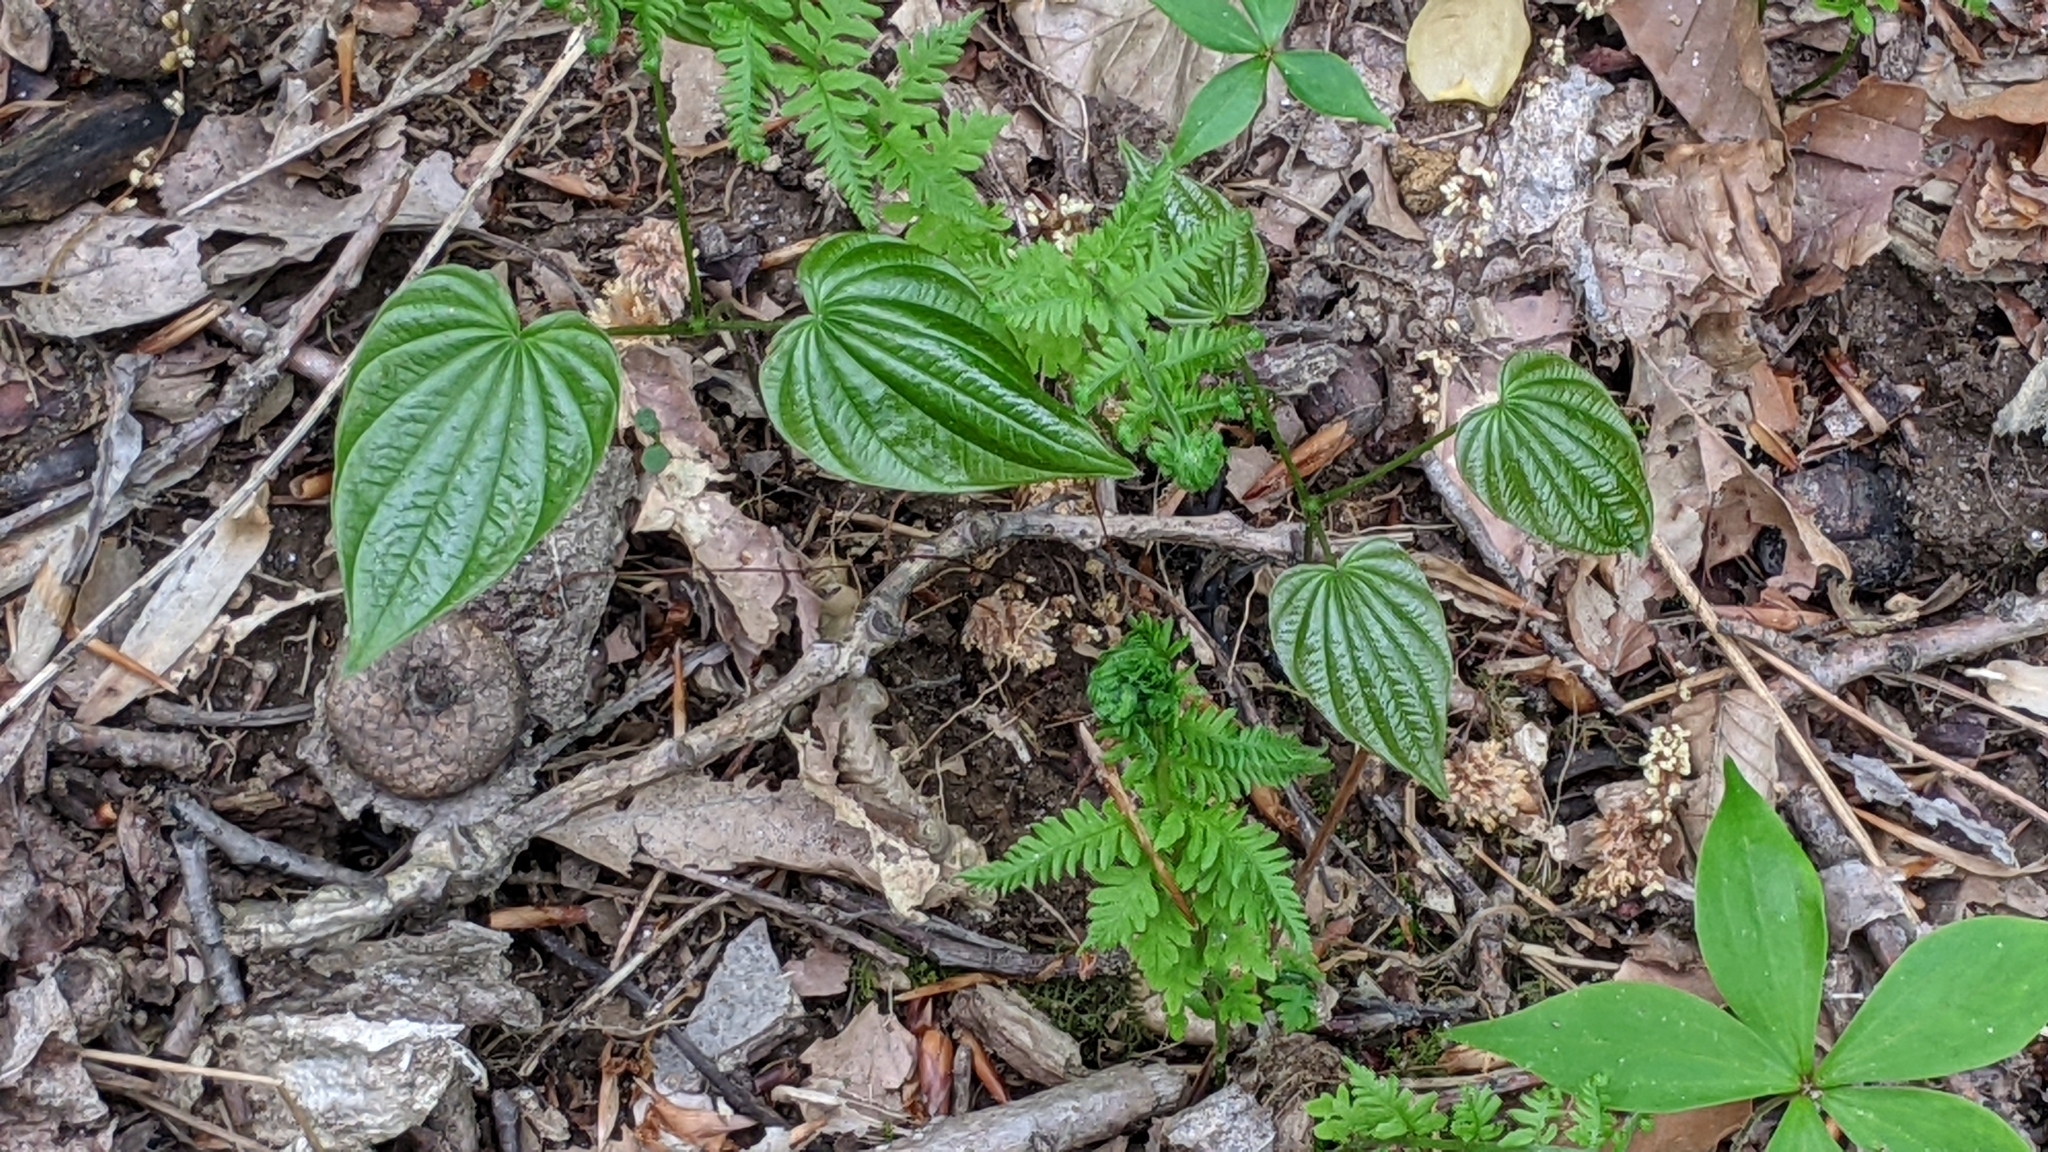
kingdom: Plantae
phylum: Tracheophyta
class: Liliopsida
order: Dioscoreales
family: Dioscoreaceae
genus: Dioscorea
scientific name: Dioscorea villosa
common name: Wild yam
